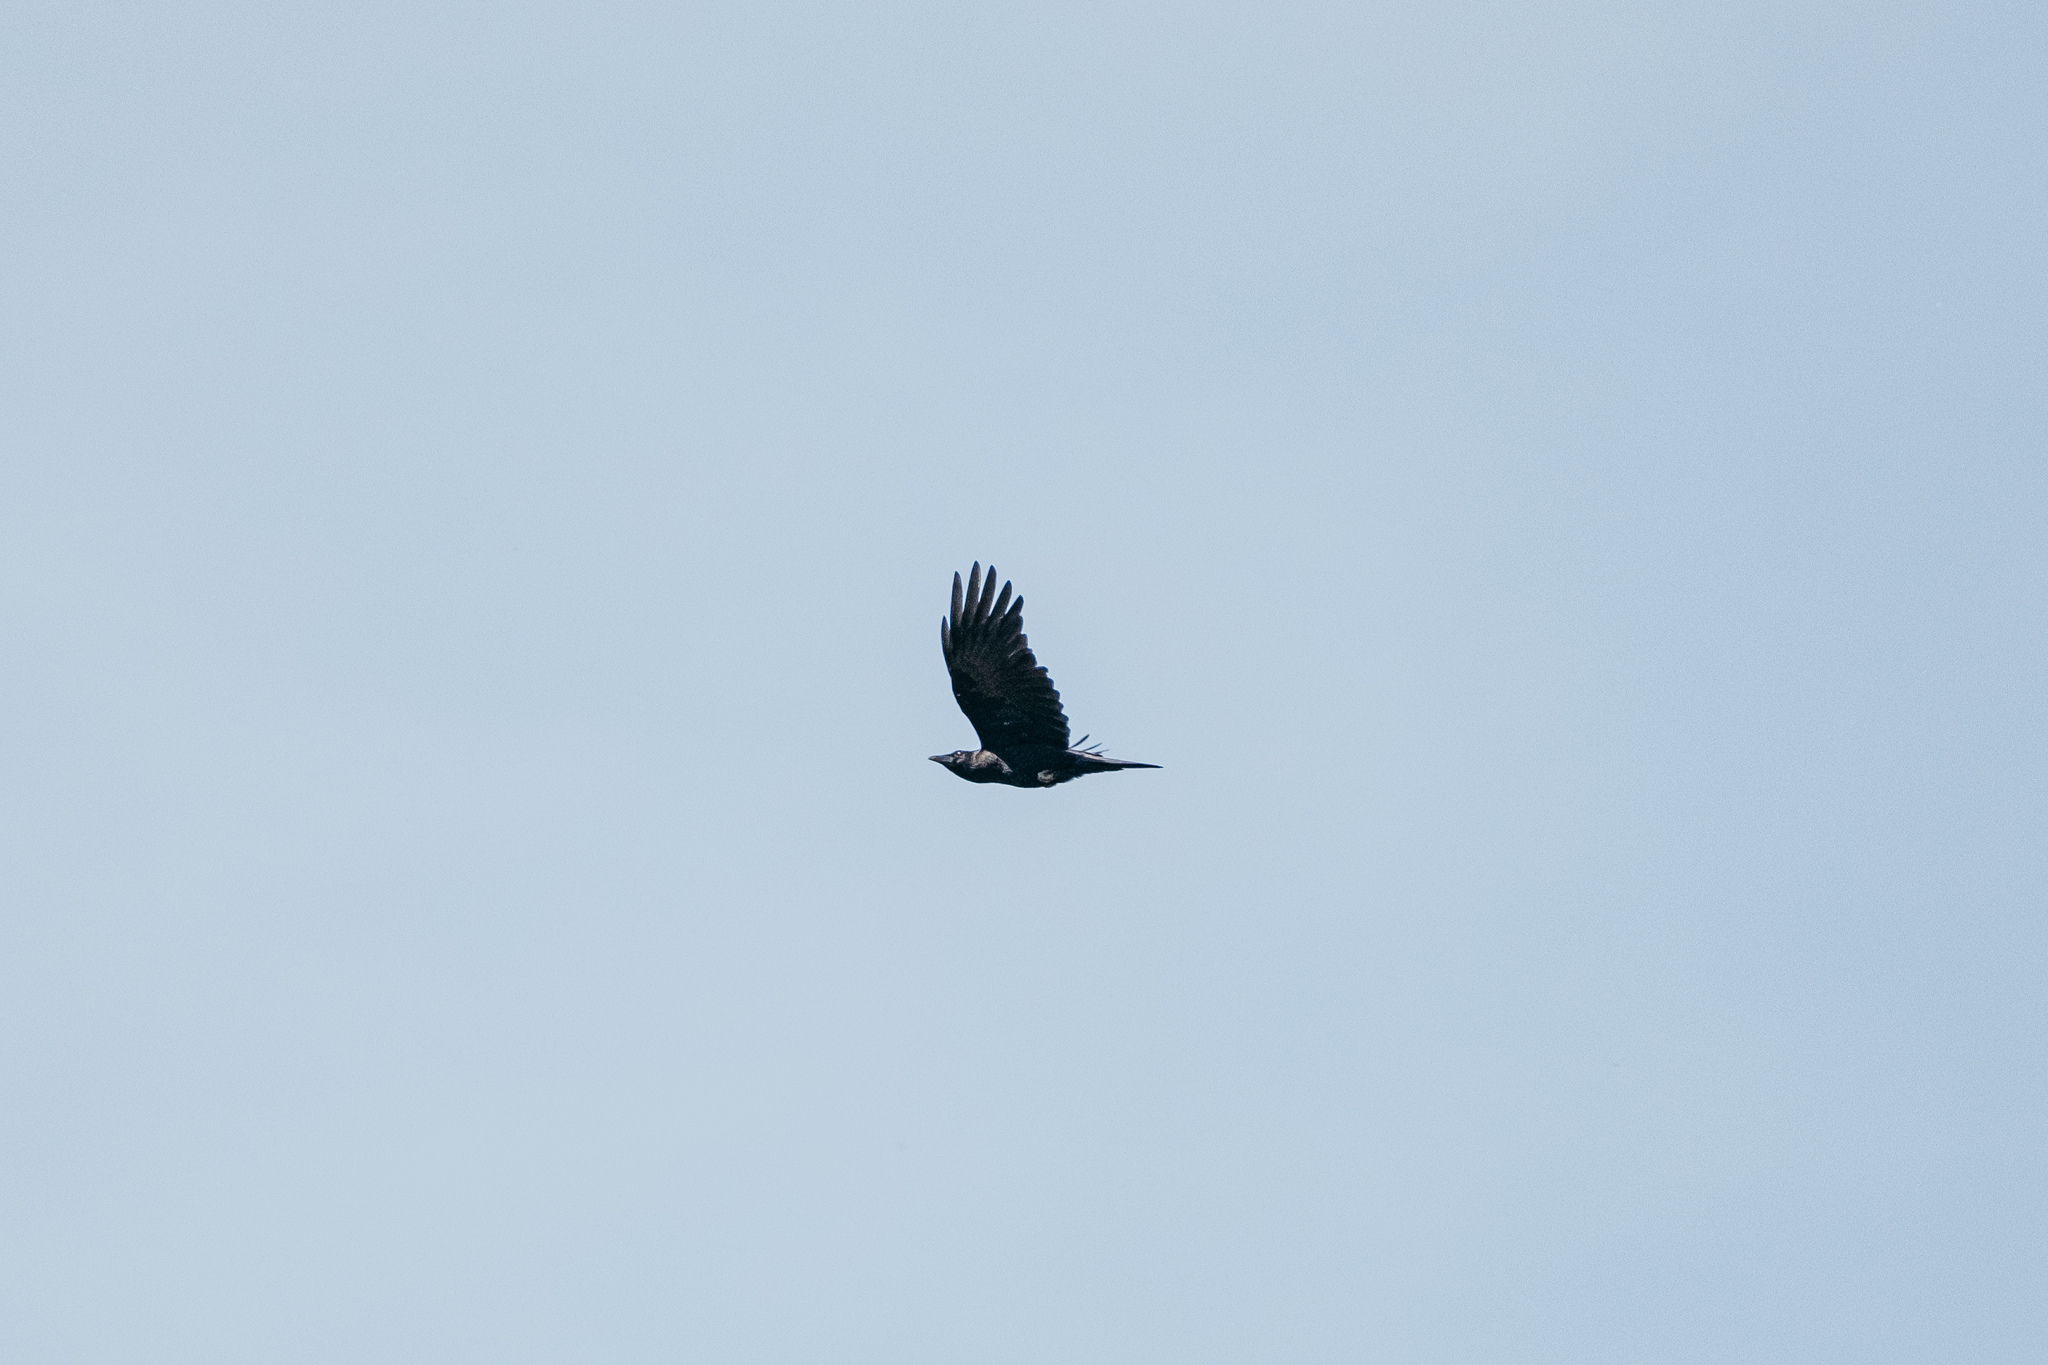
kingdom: Animalia
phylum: Chordata
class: Aves
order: Passeriformes
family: Corvidae
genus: Corvus
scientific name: Corvus corone
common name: Carrion crow
